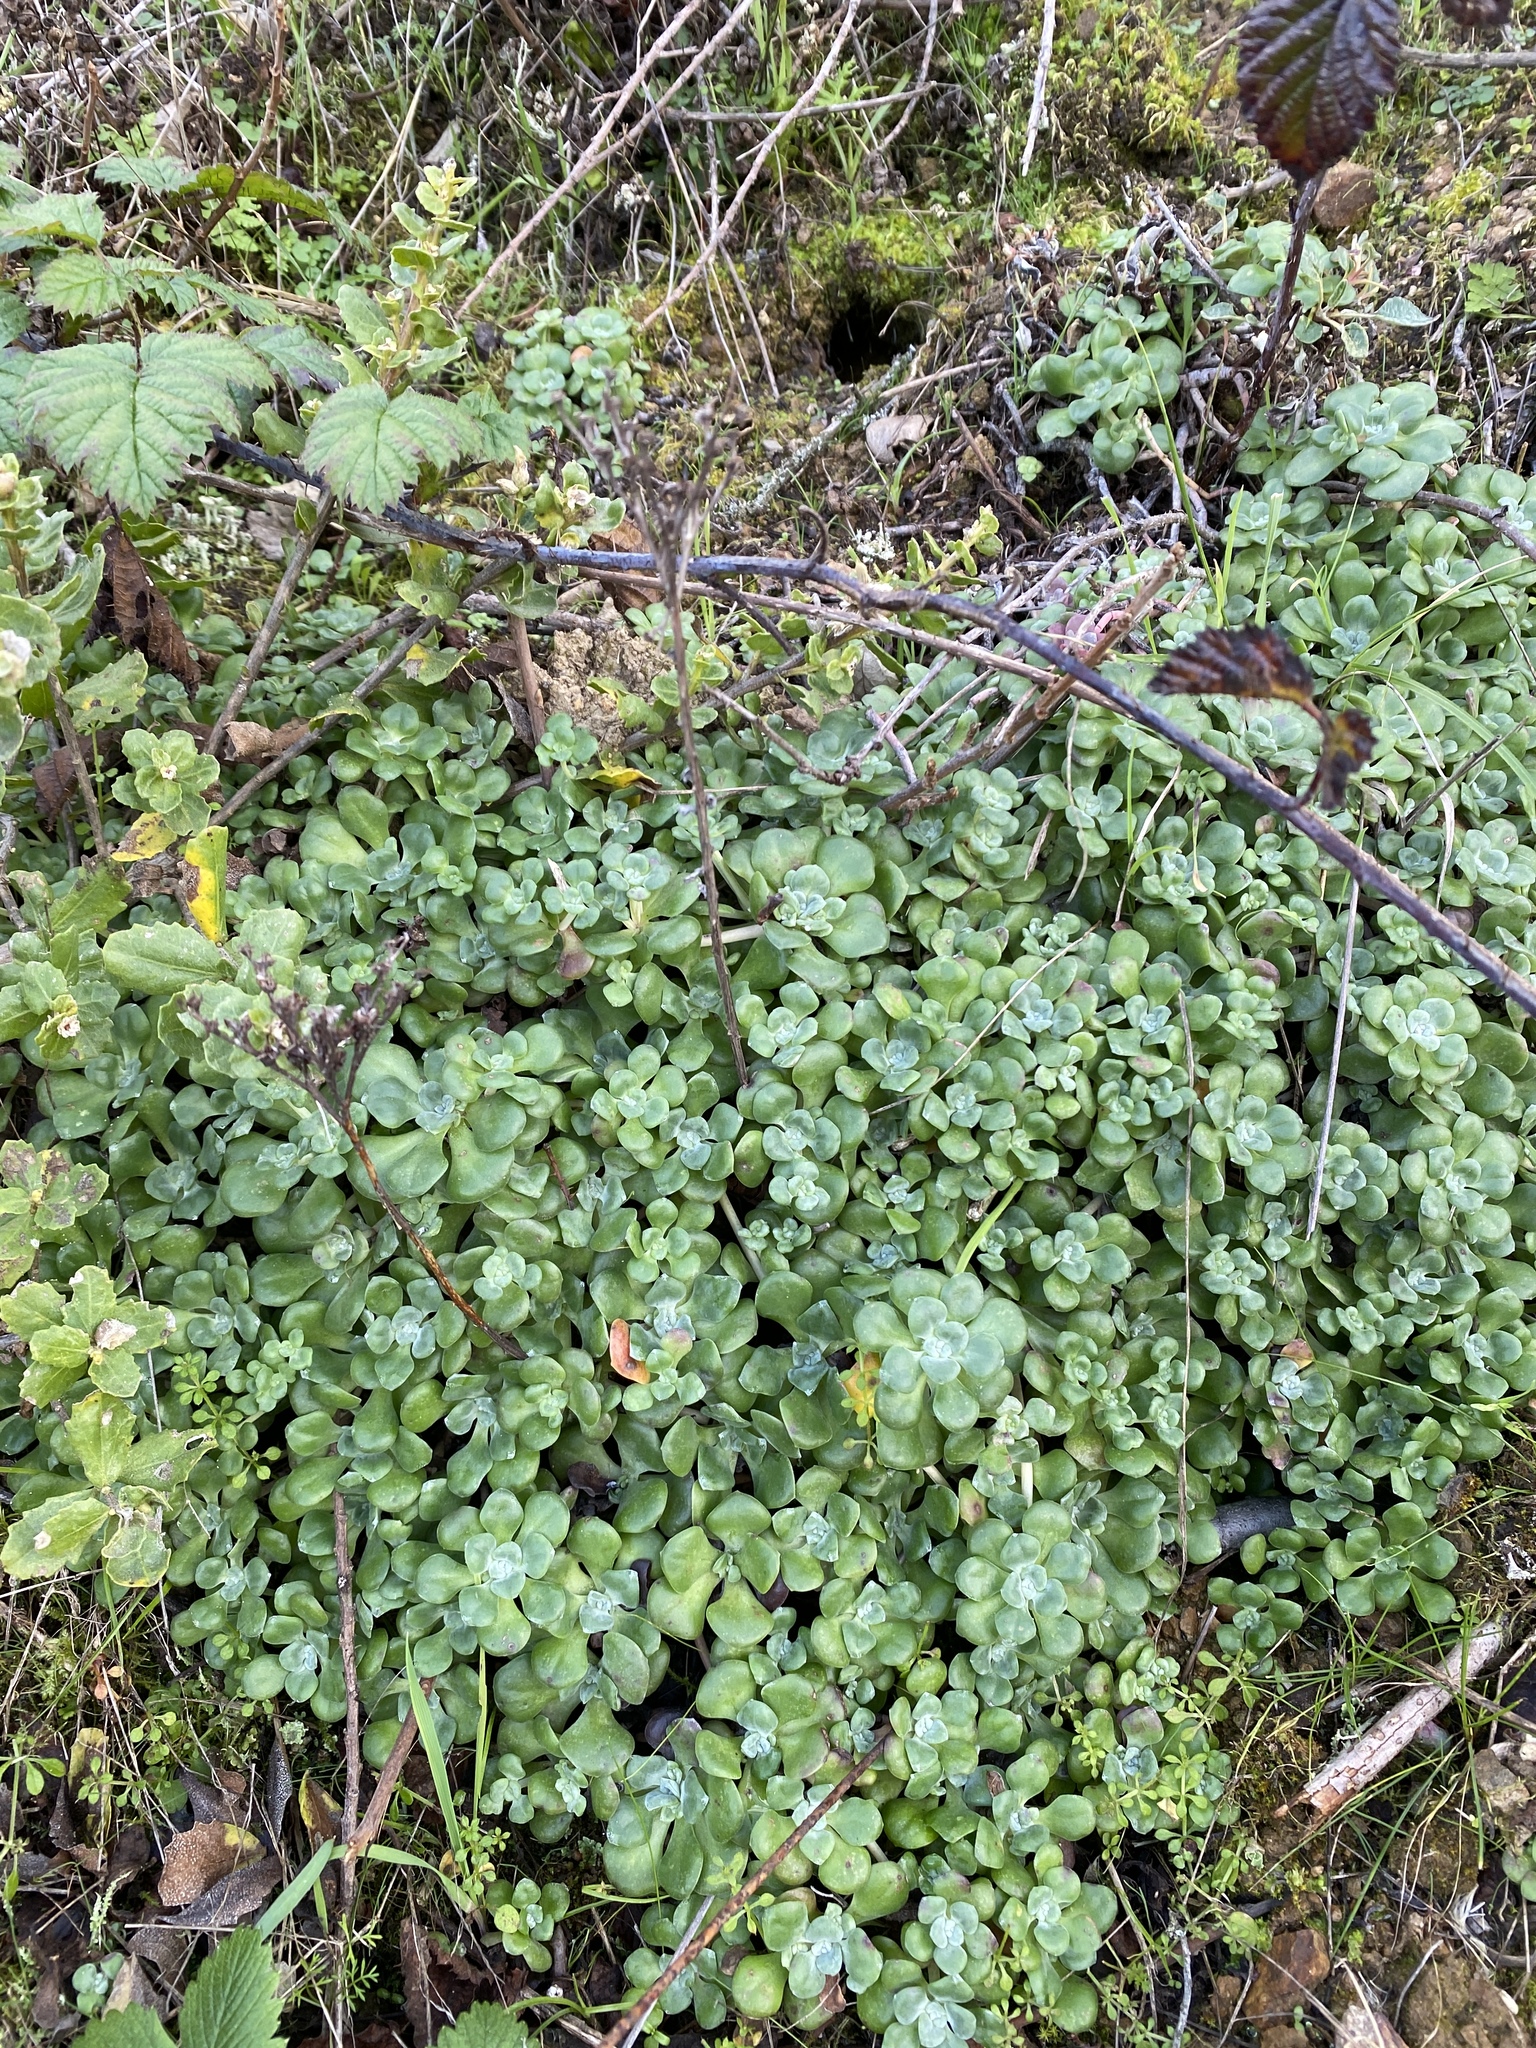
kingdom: Plantae
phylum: Tracheophyta
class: Magnoliopsida
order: Saxifragales
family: Crassulaceae
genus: Sedum
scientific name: Sedum spathulifolium
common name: Colorado stonecrop
